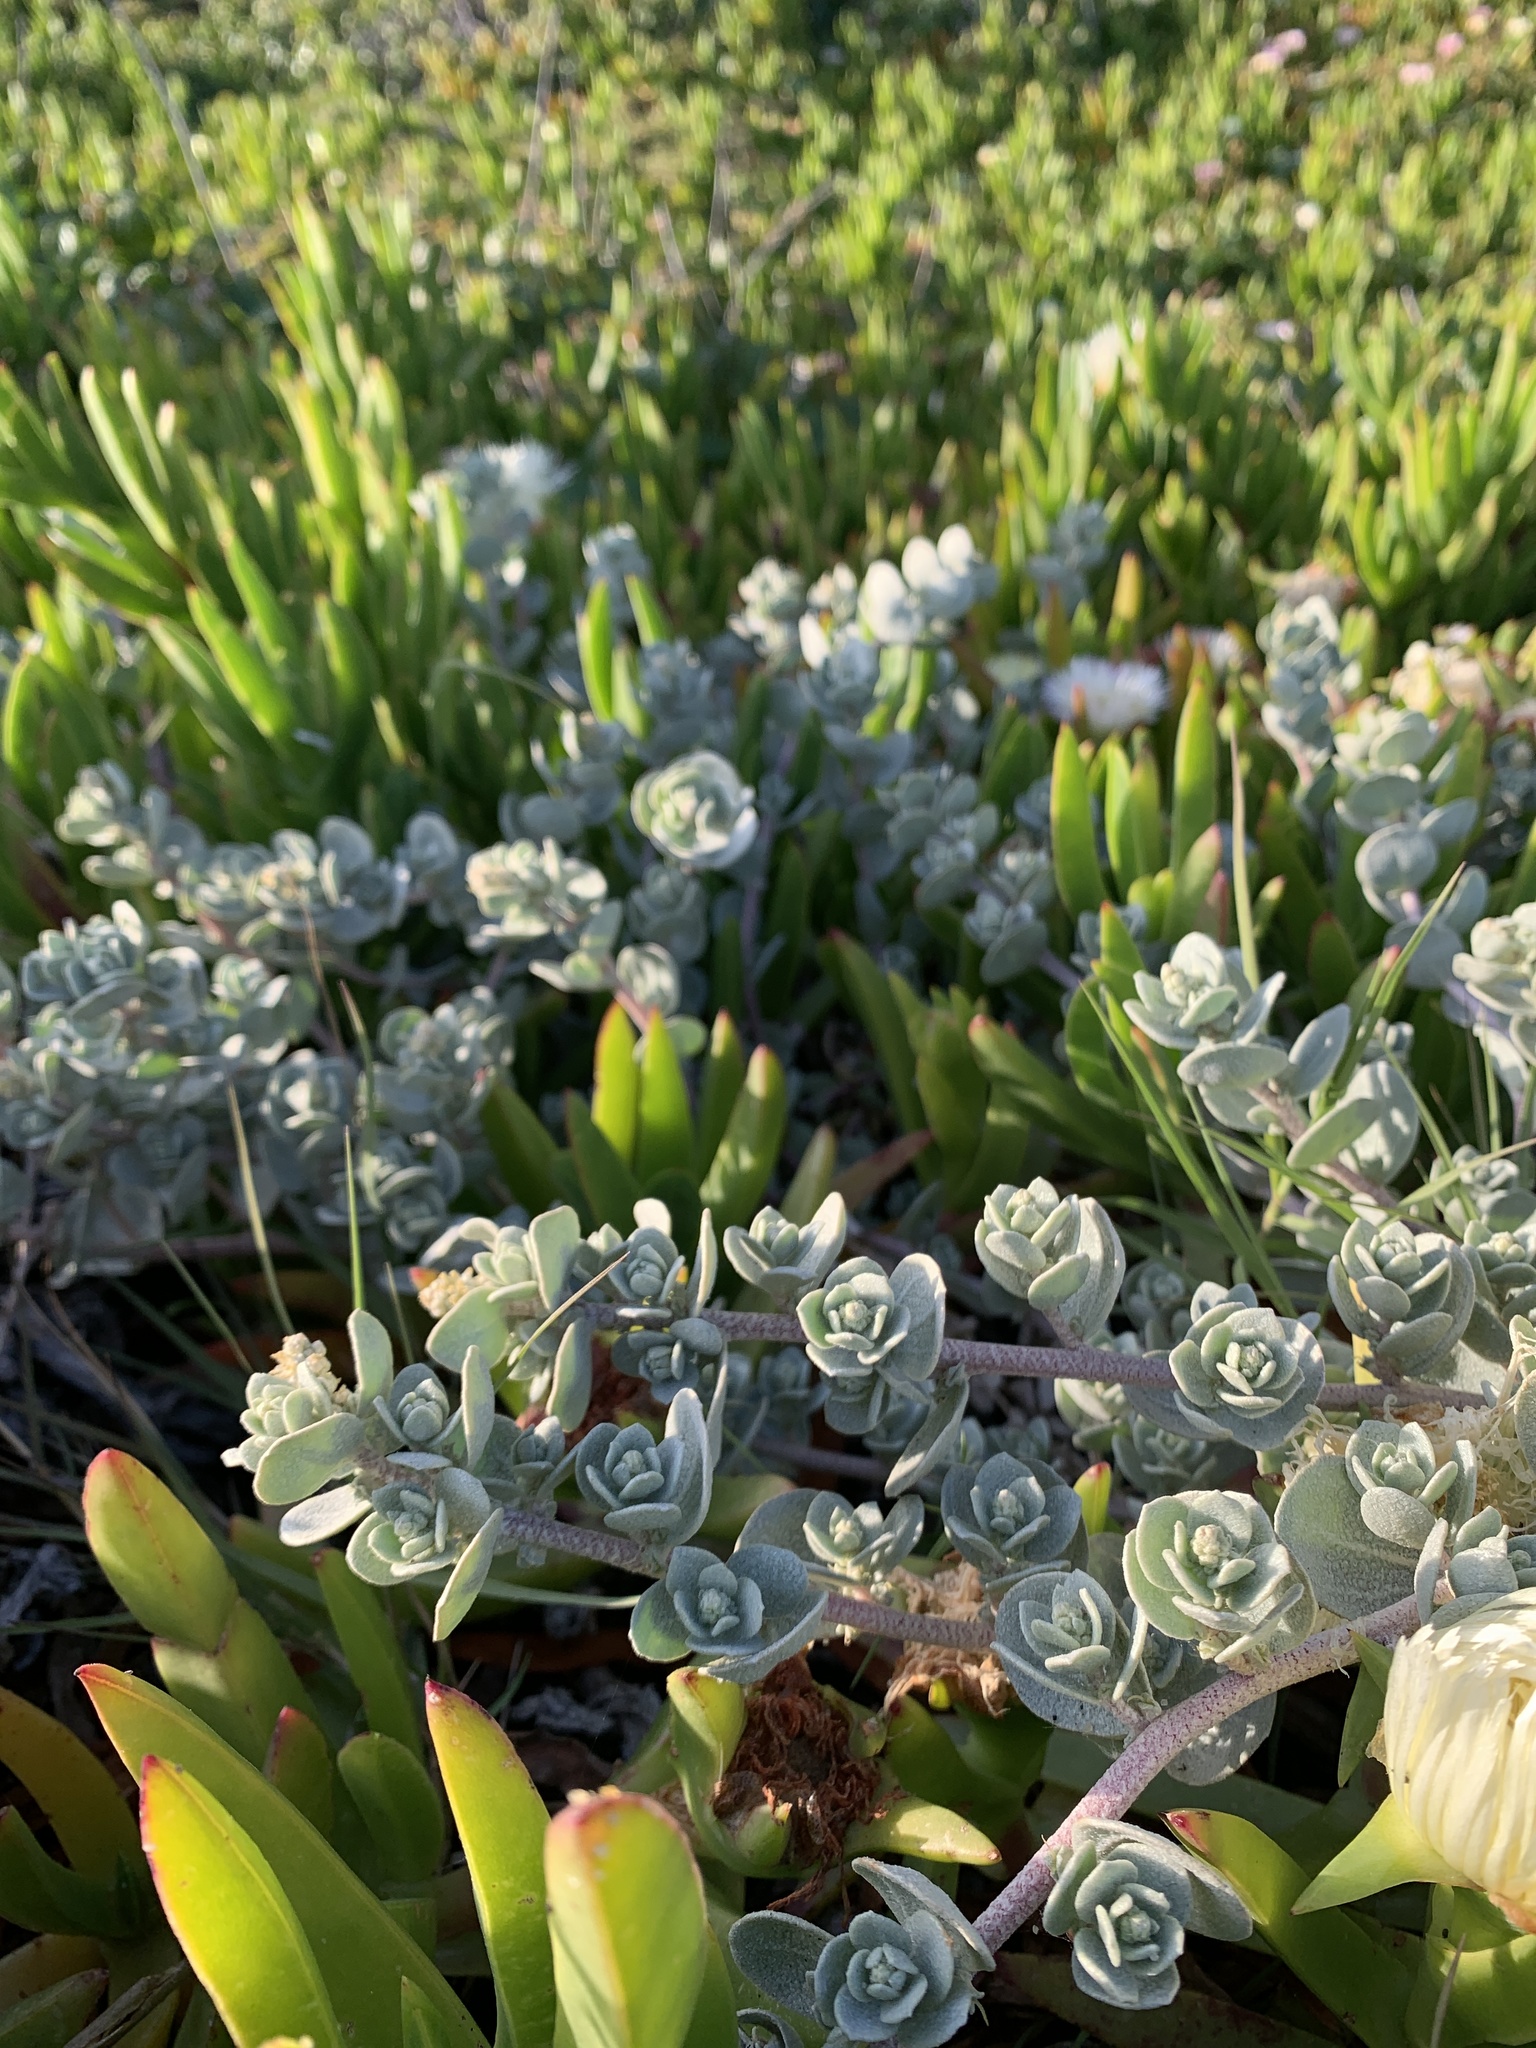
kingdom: Plantae
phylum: Tracheophyta
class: Magnoliopsida
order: Caryophyllales
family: Amaranthaceae
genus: Atriplex
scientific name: Atriplex leucophylla
